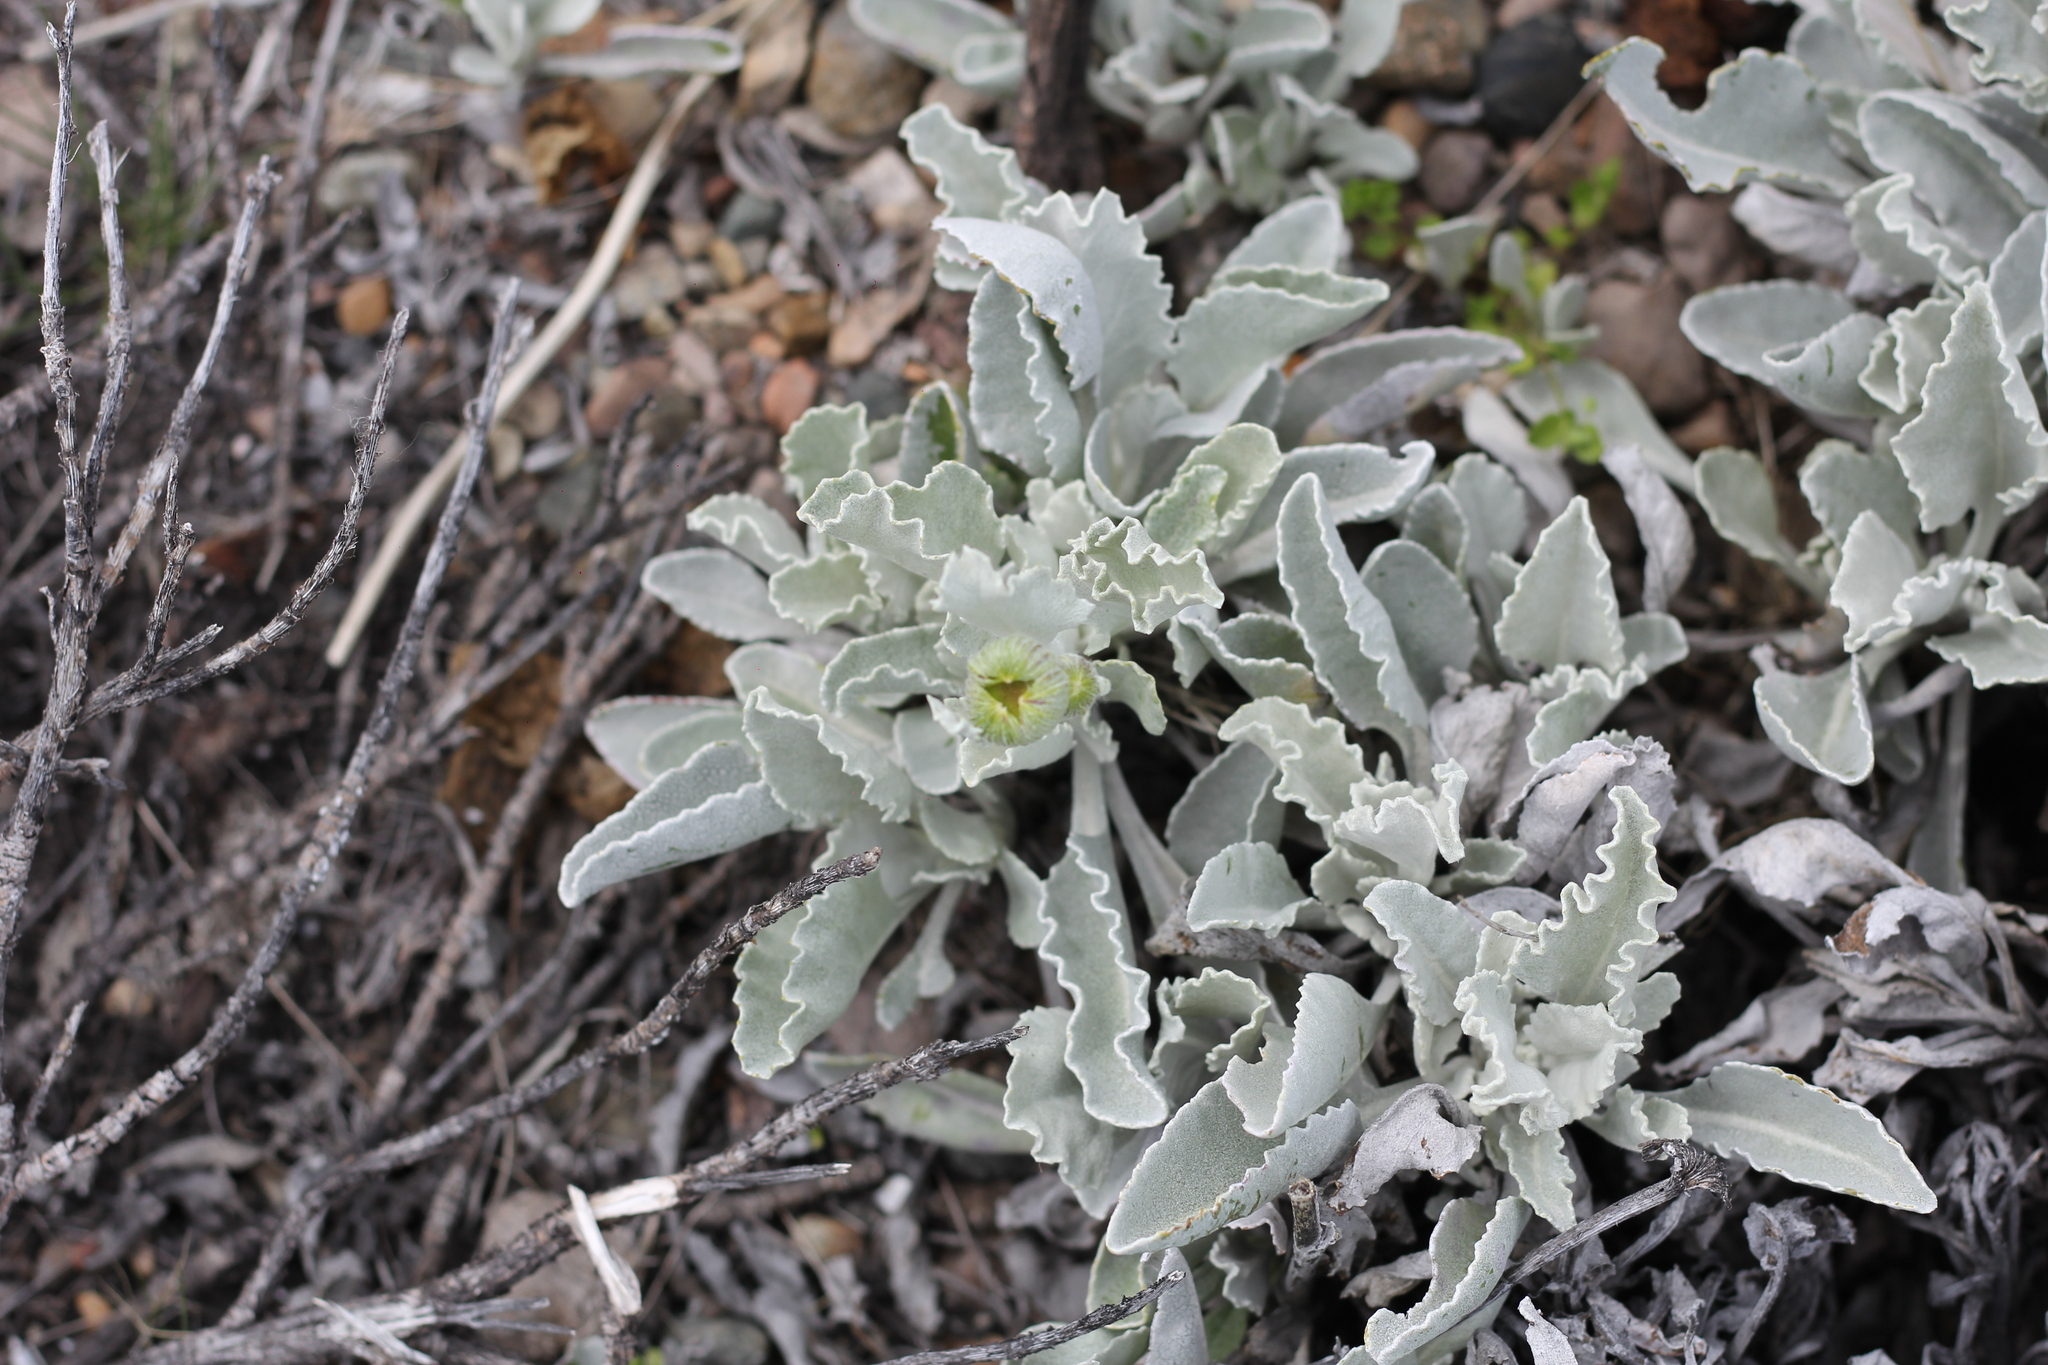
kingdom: Plantae
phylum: Tracheophyta
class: Magnoliopsida
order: Asterales
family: Asteraceae
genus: Senecio
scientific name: Senecio gilliesii
